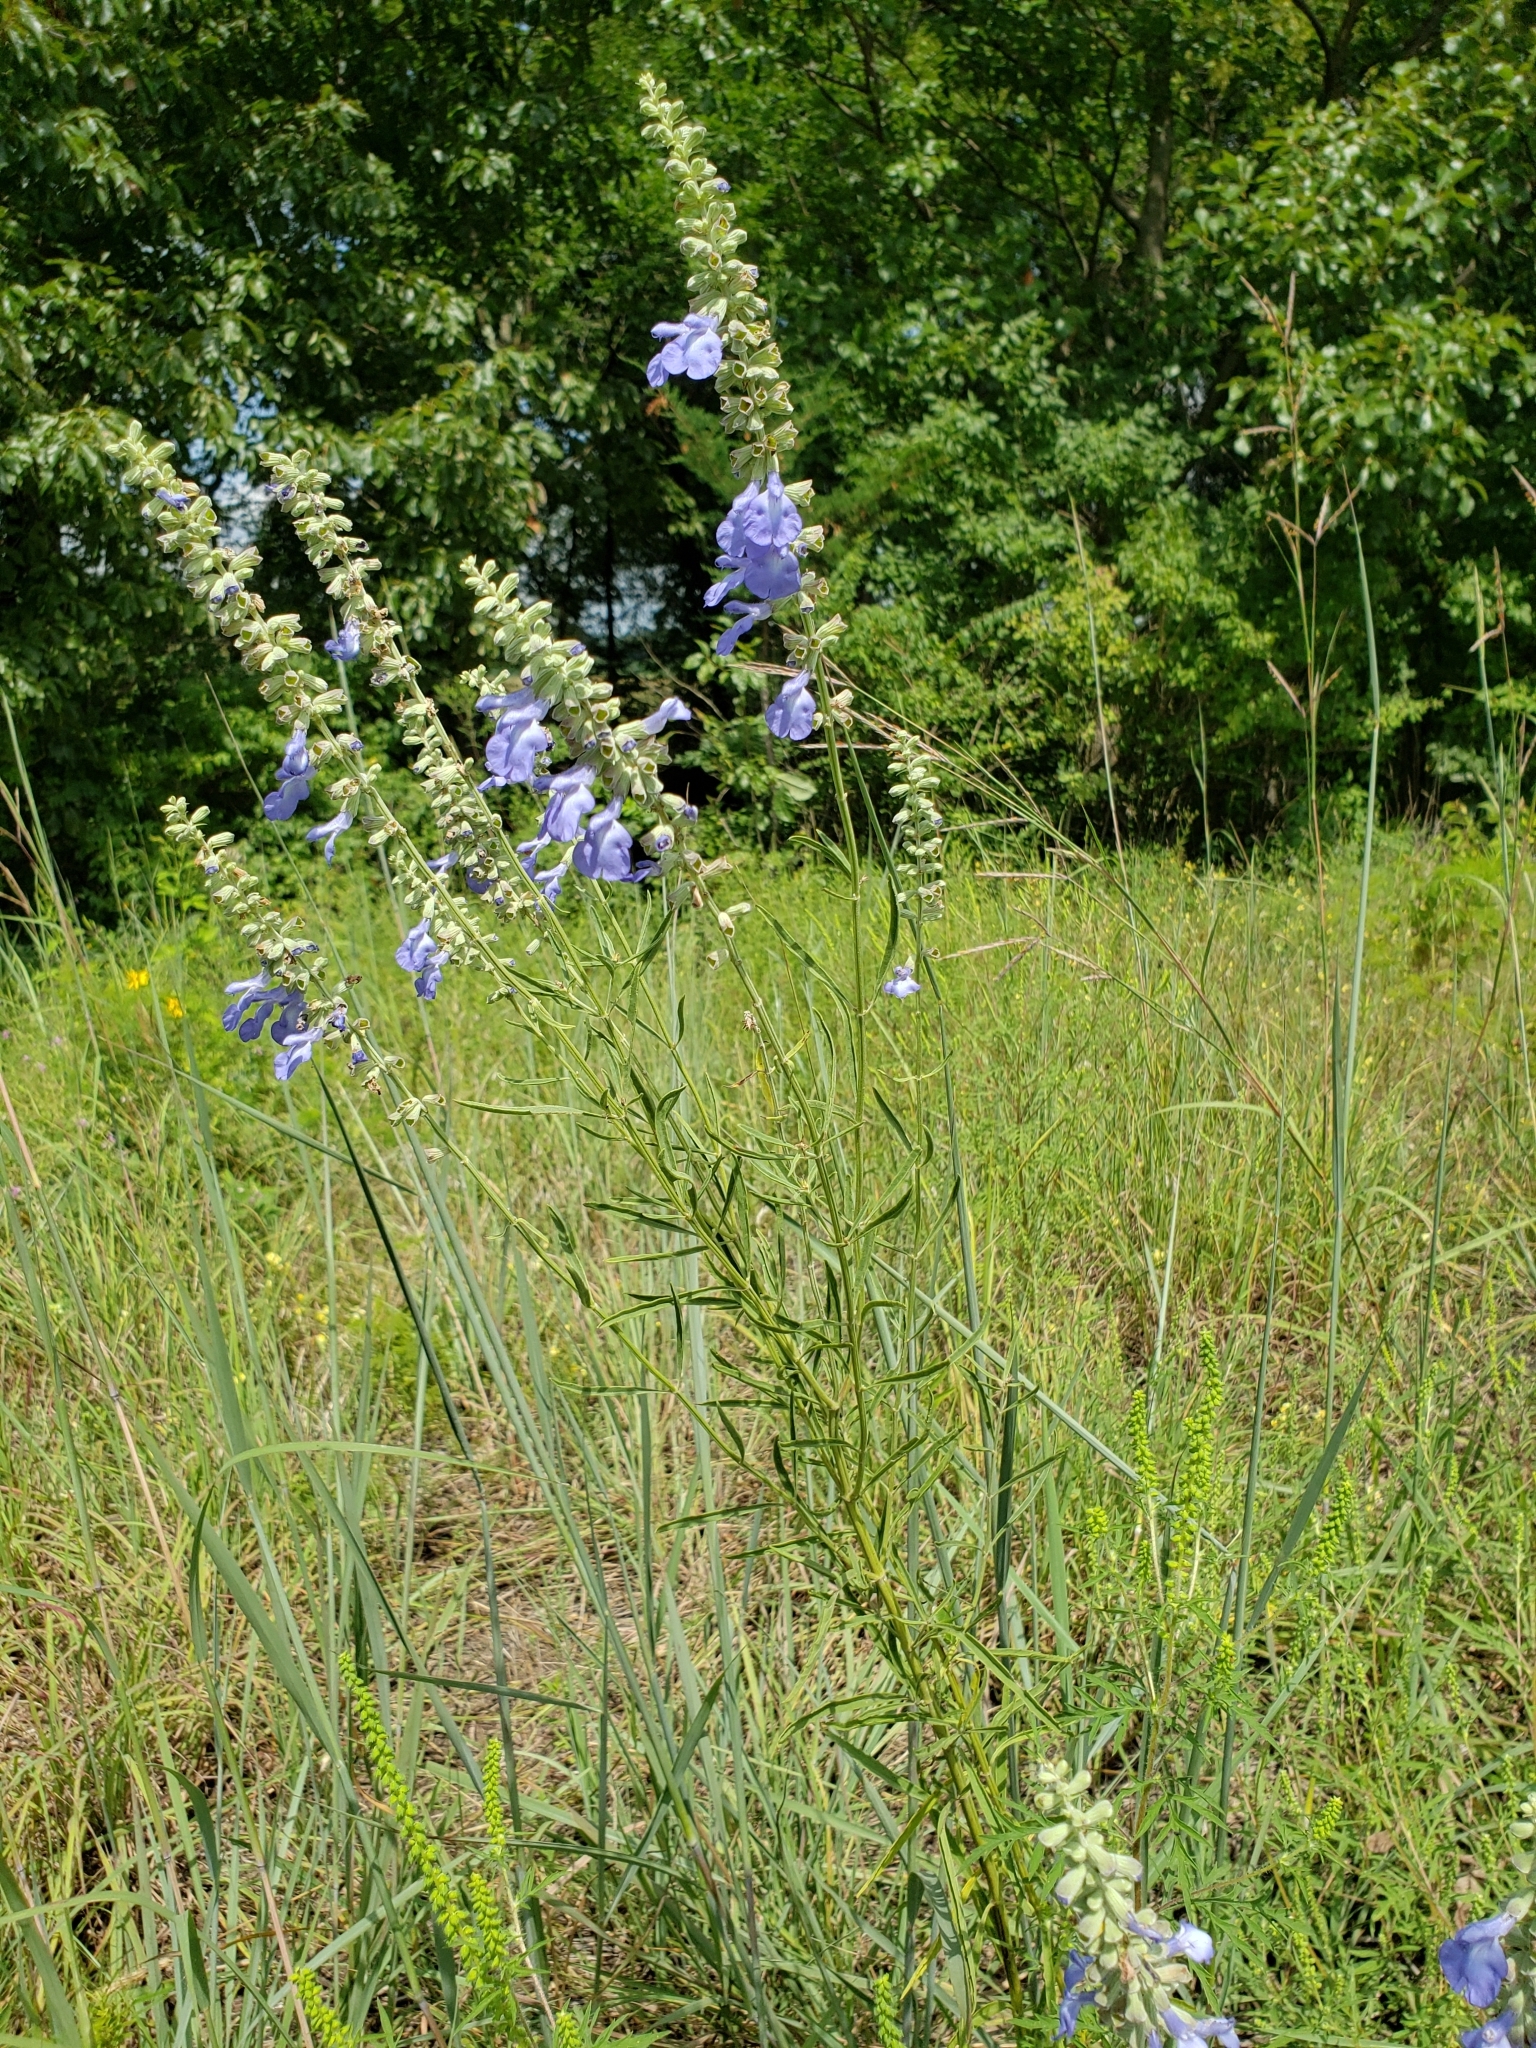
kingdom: Plantae
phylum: Tracheophyta
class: Magnoliopsida
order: Lamiales
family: Lamiaceae
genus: Salvia
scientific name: Salvia azurea
